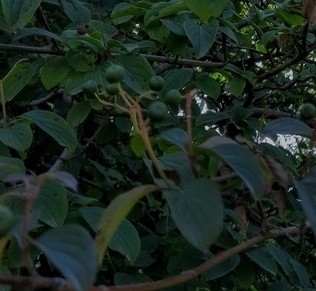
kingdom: Plantae
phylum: Tracheophyta
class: Magnoliopsida
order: Cornales
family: Cornaceae
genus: Cornus
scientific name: Cornus sanguinea
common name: Dogwood
